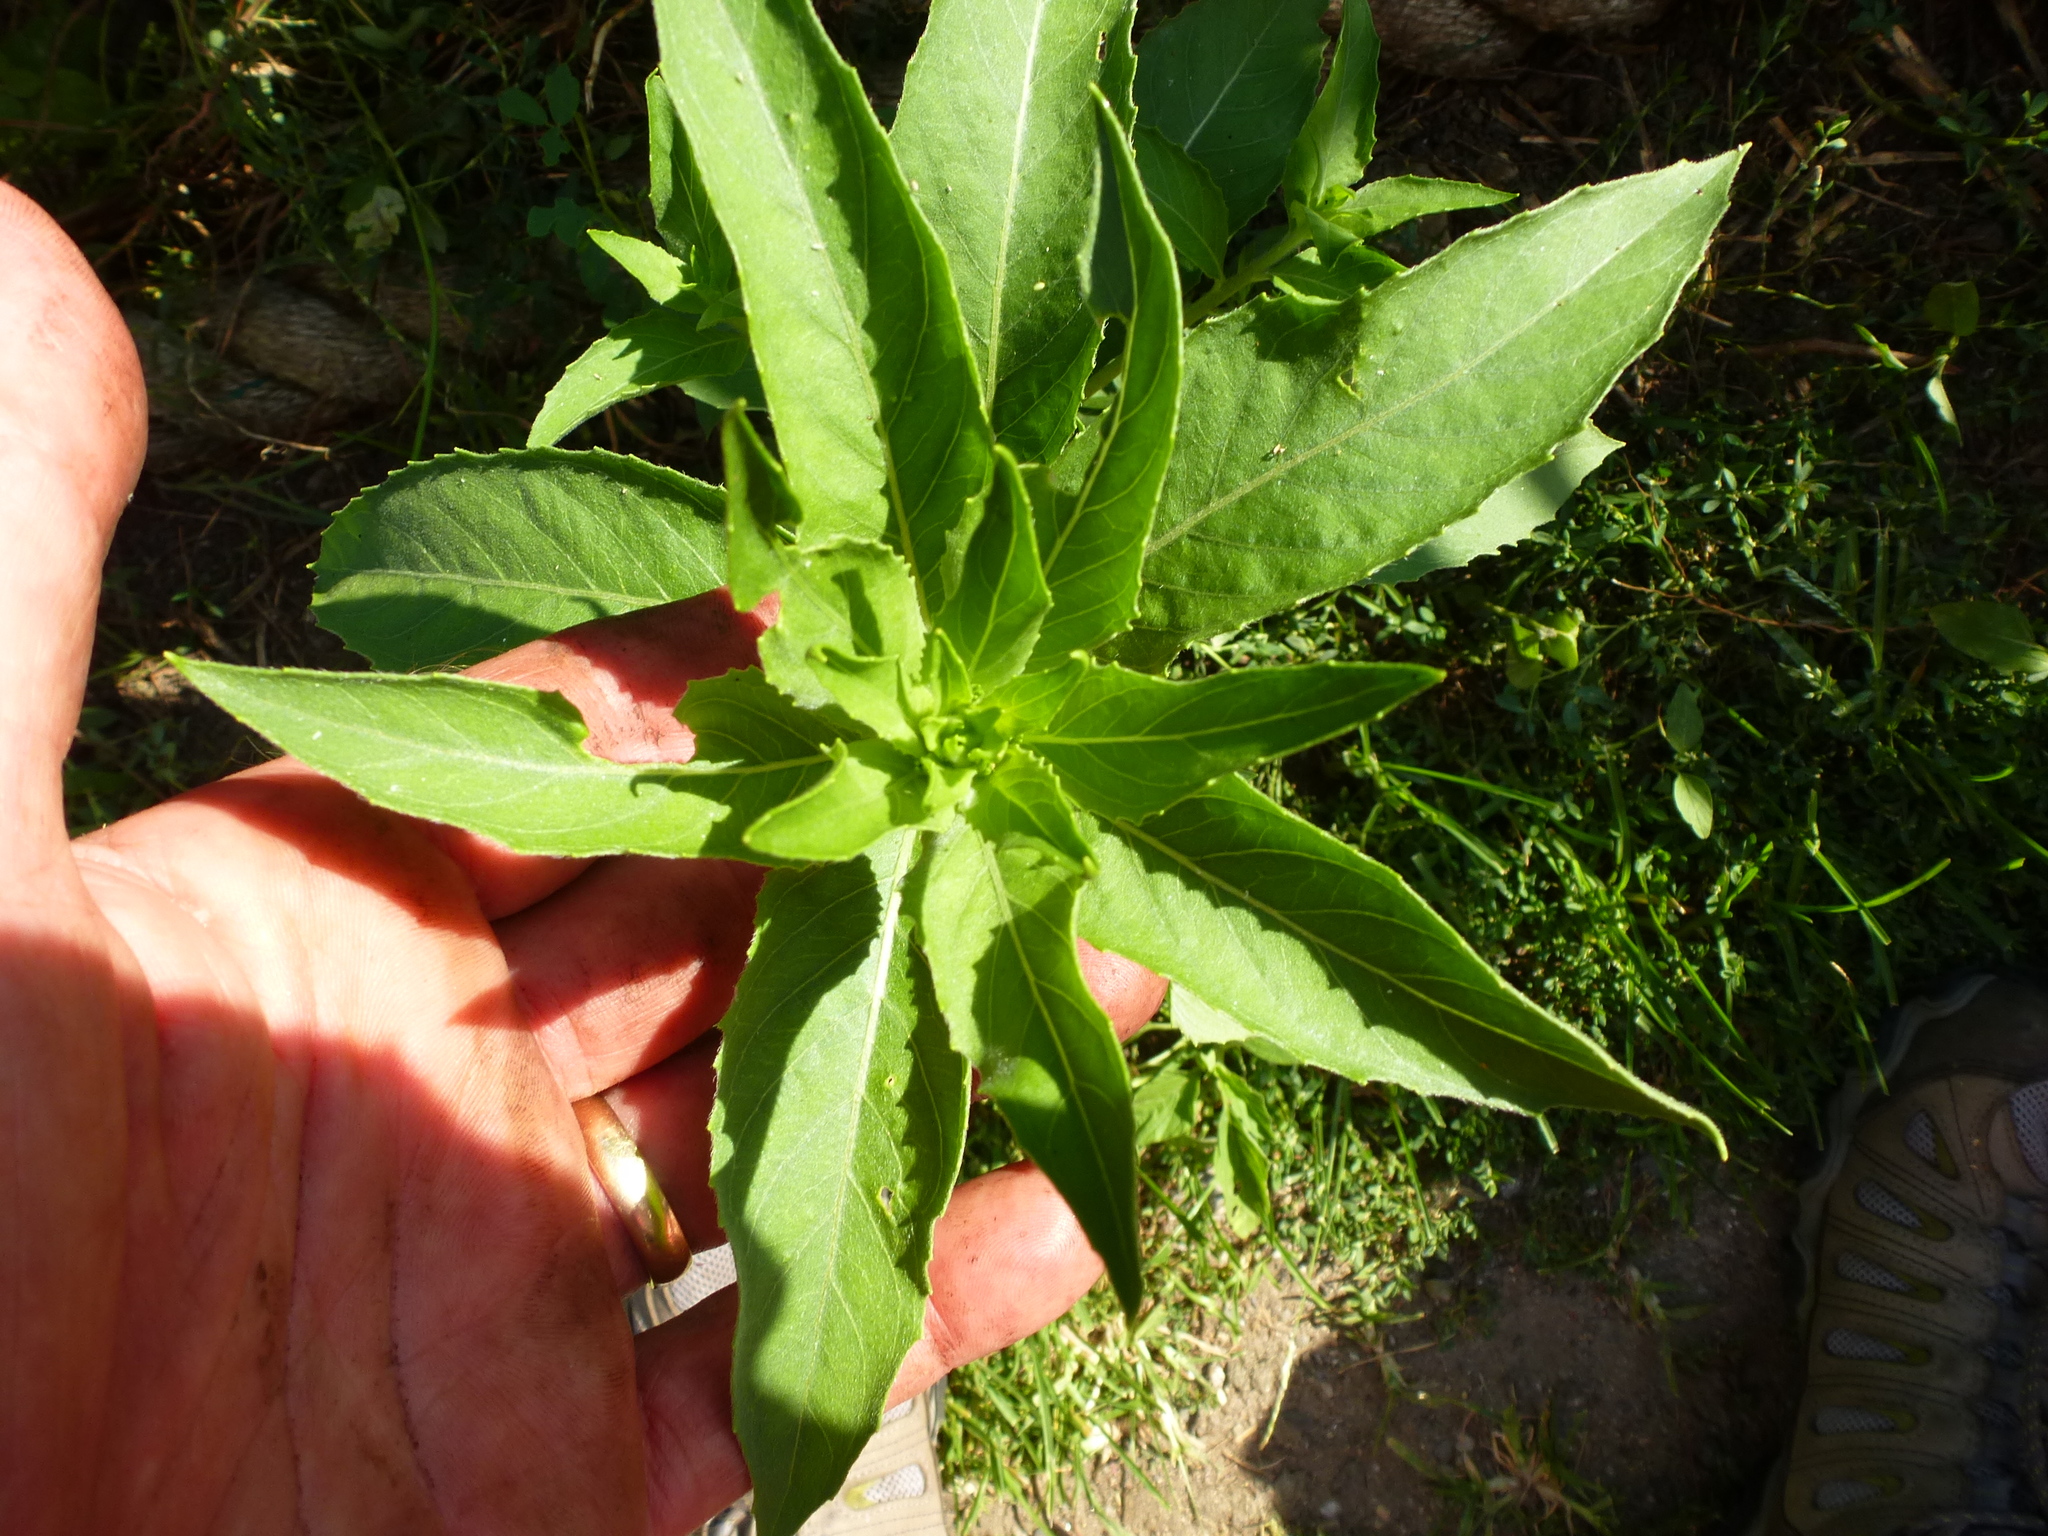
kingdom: Plantae
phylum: Tracheophyta
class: Magnoliopsida
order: Myrtales
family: Onagraceae
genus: Oenothera
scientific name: Oenothera biennis
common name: Common evening-primrose
